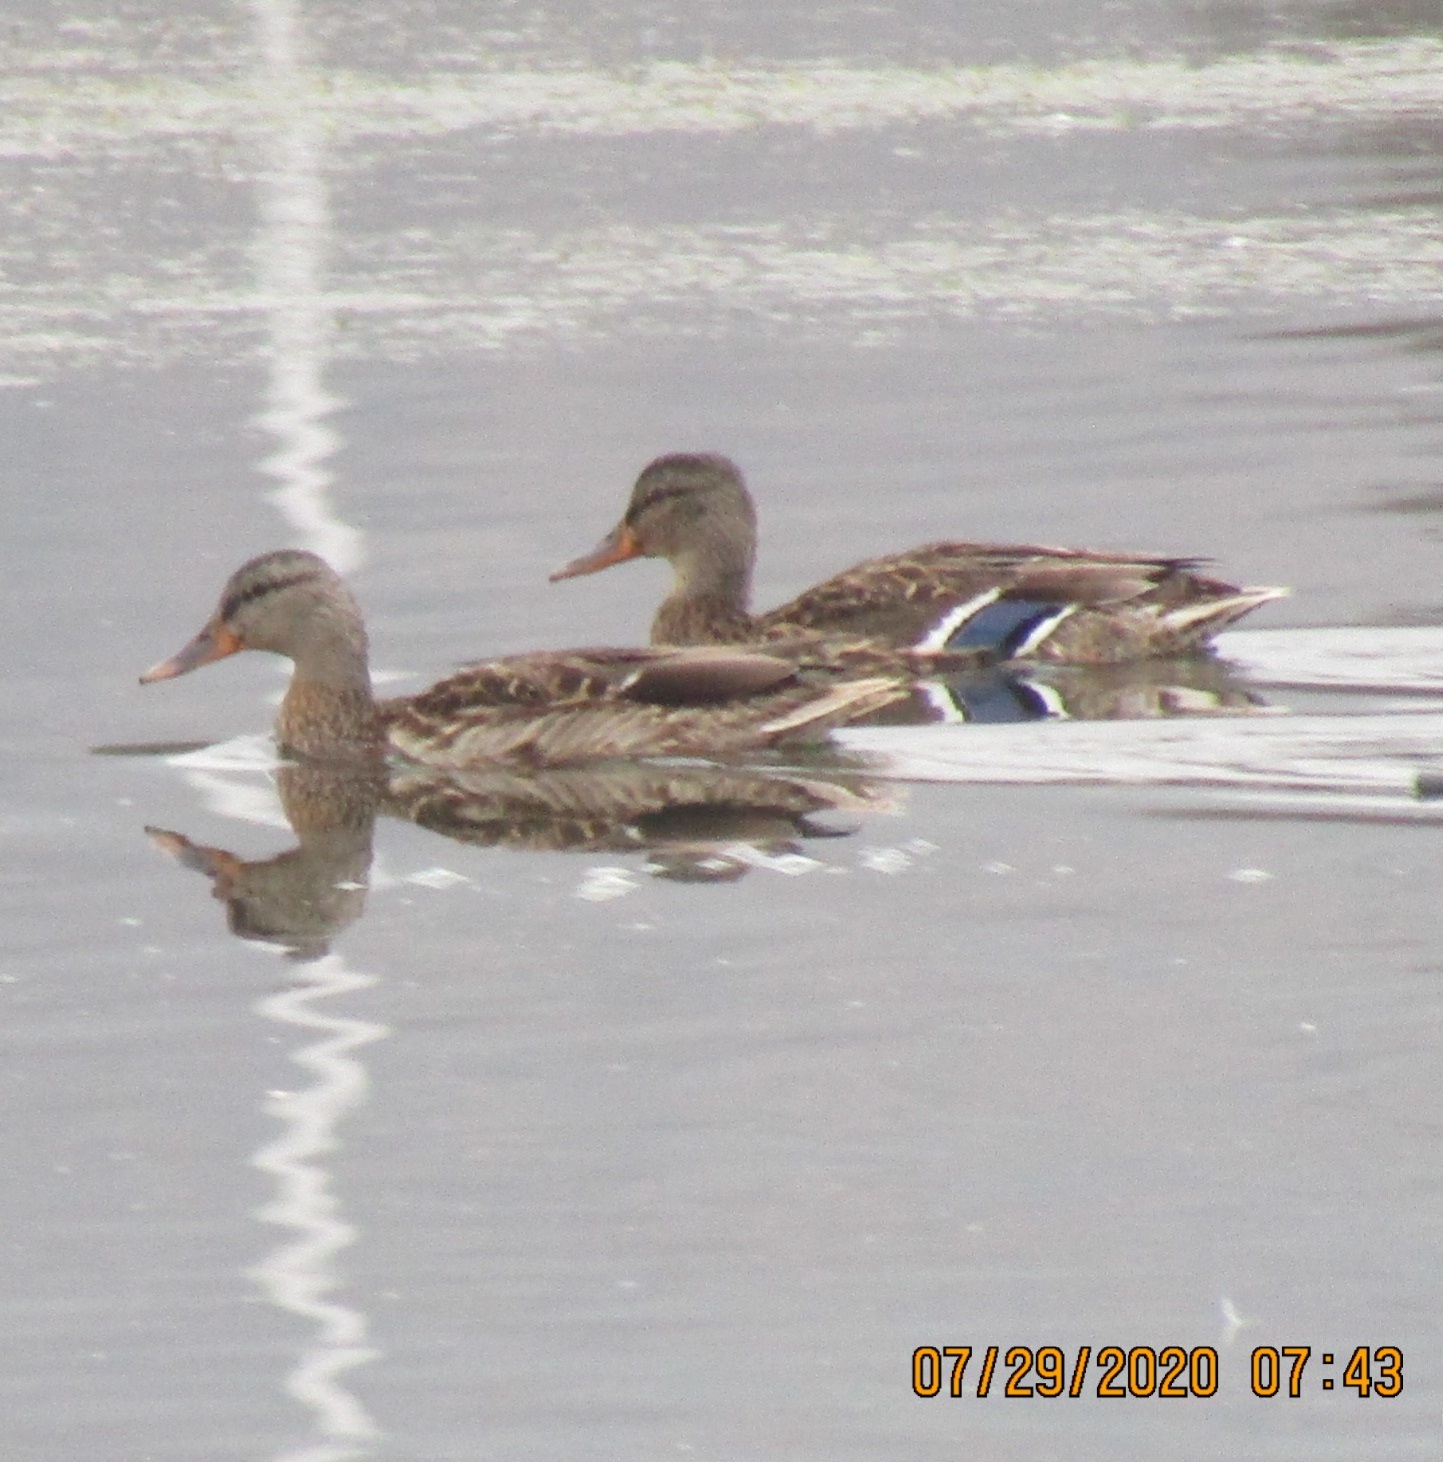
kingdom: Animalia
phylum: Chordata
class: Aves
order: Anseriformes
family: Anatidae
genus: Anas
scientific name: Anas platyrhynchos
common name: Mallard
